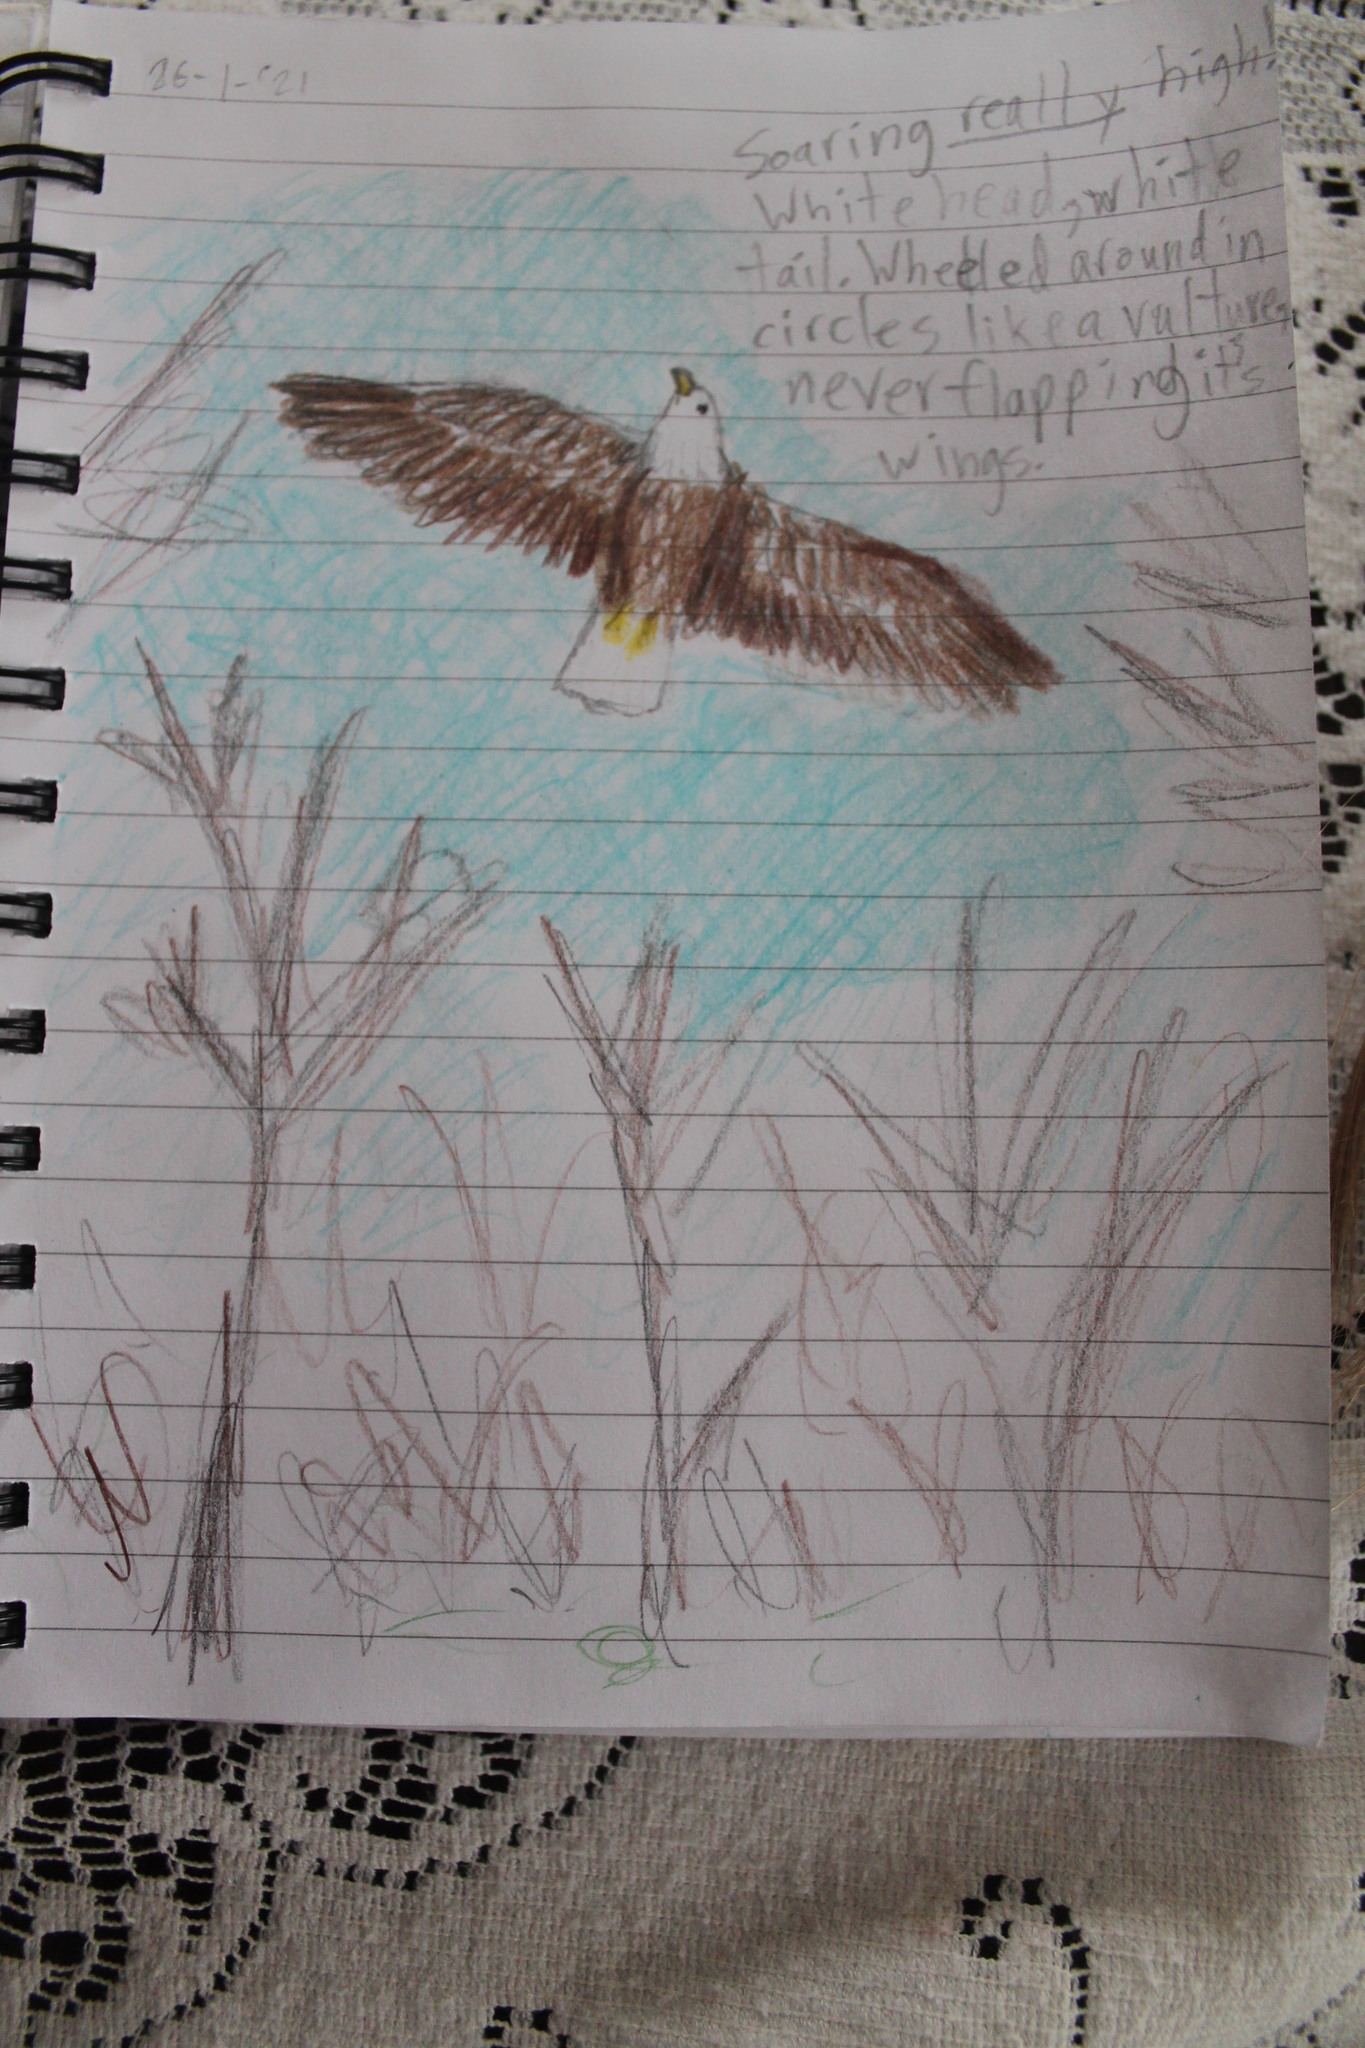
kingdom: Animalia
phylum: Chordata
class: Aves
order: Accipitriformes
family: Accipitridae
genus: Haliaeetus
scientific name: Haliaeetus leucocephalus
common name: Bald eagle
